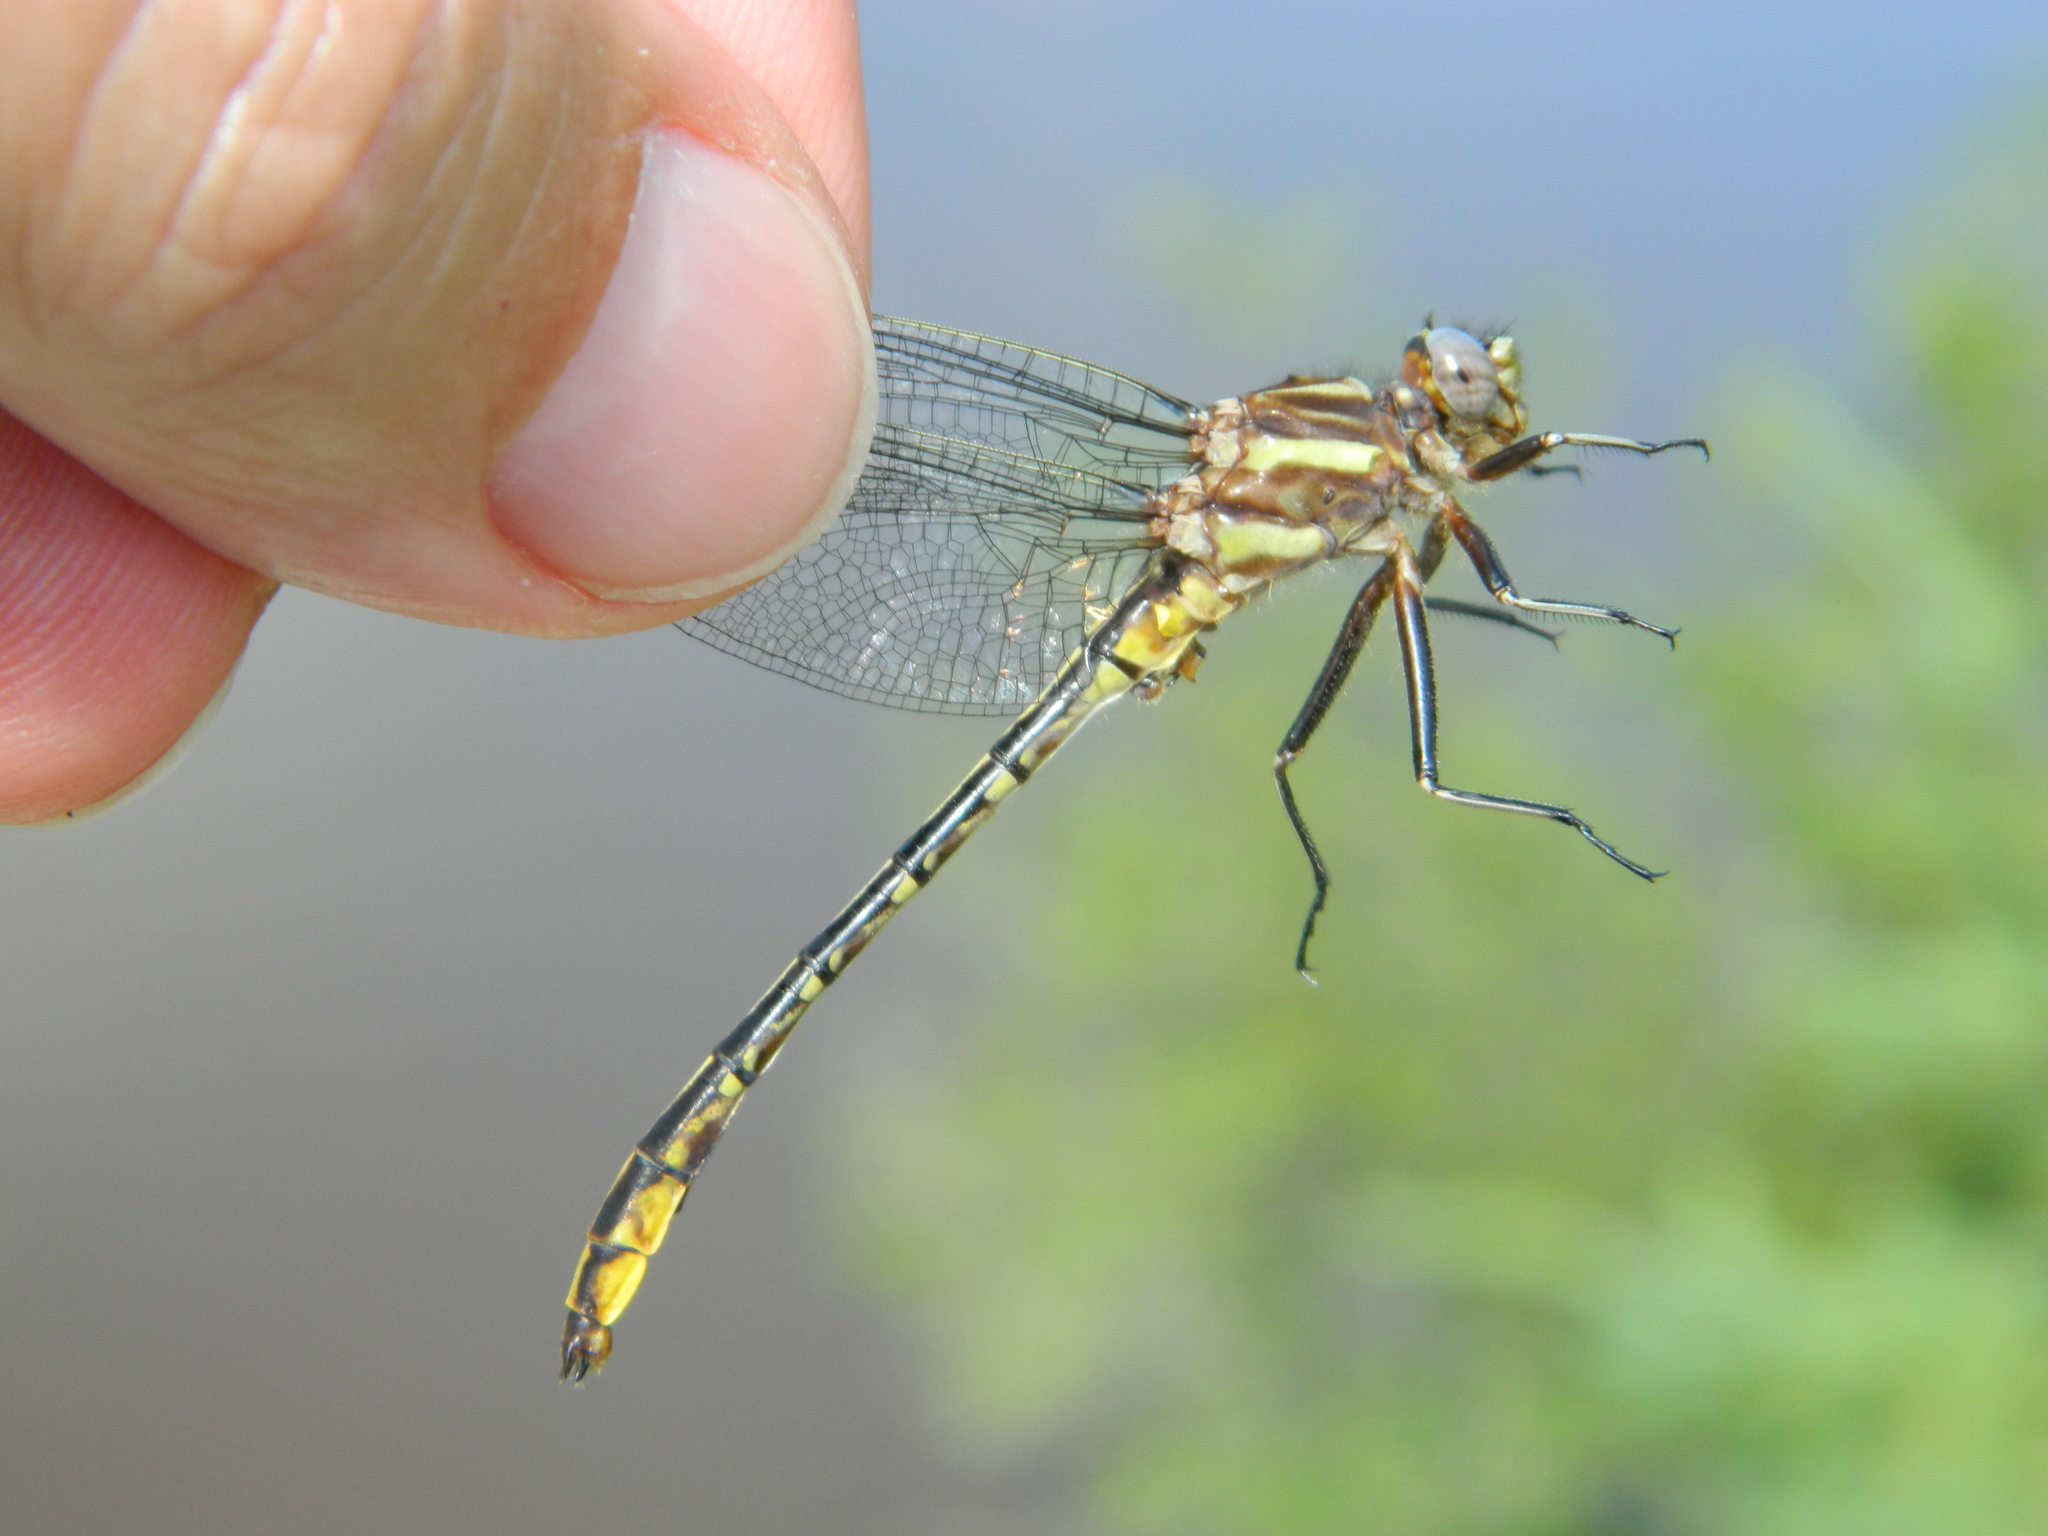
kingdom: Animalia
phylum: Arthropoda
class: Insecta
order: Odonata
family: Gomphidae
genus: Phanogomphus
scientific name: Phanogomphus exilis
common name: Lancet clubtail
